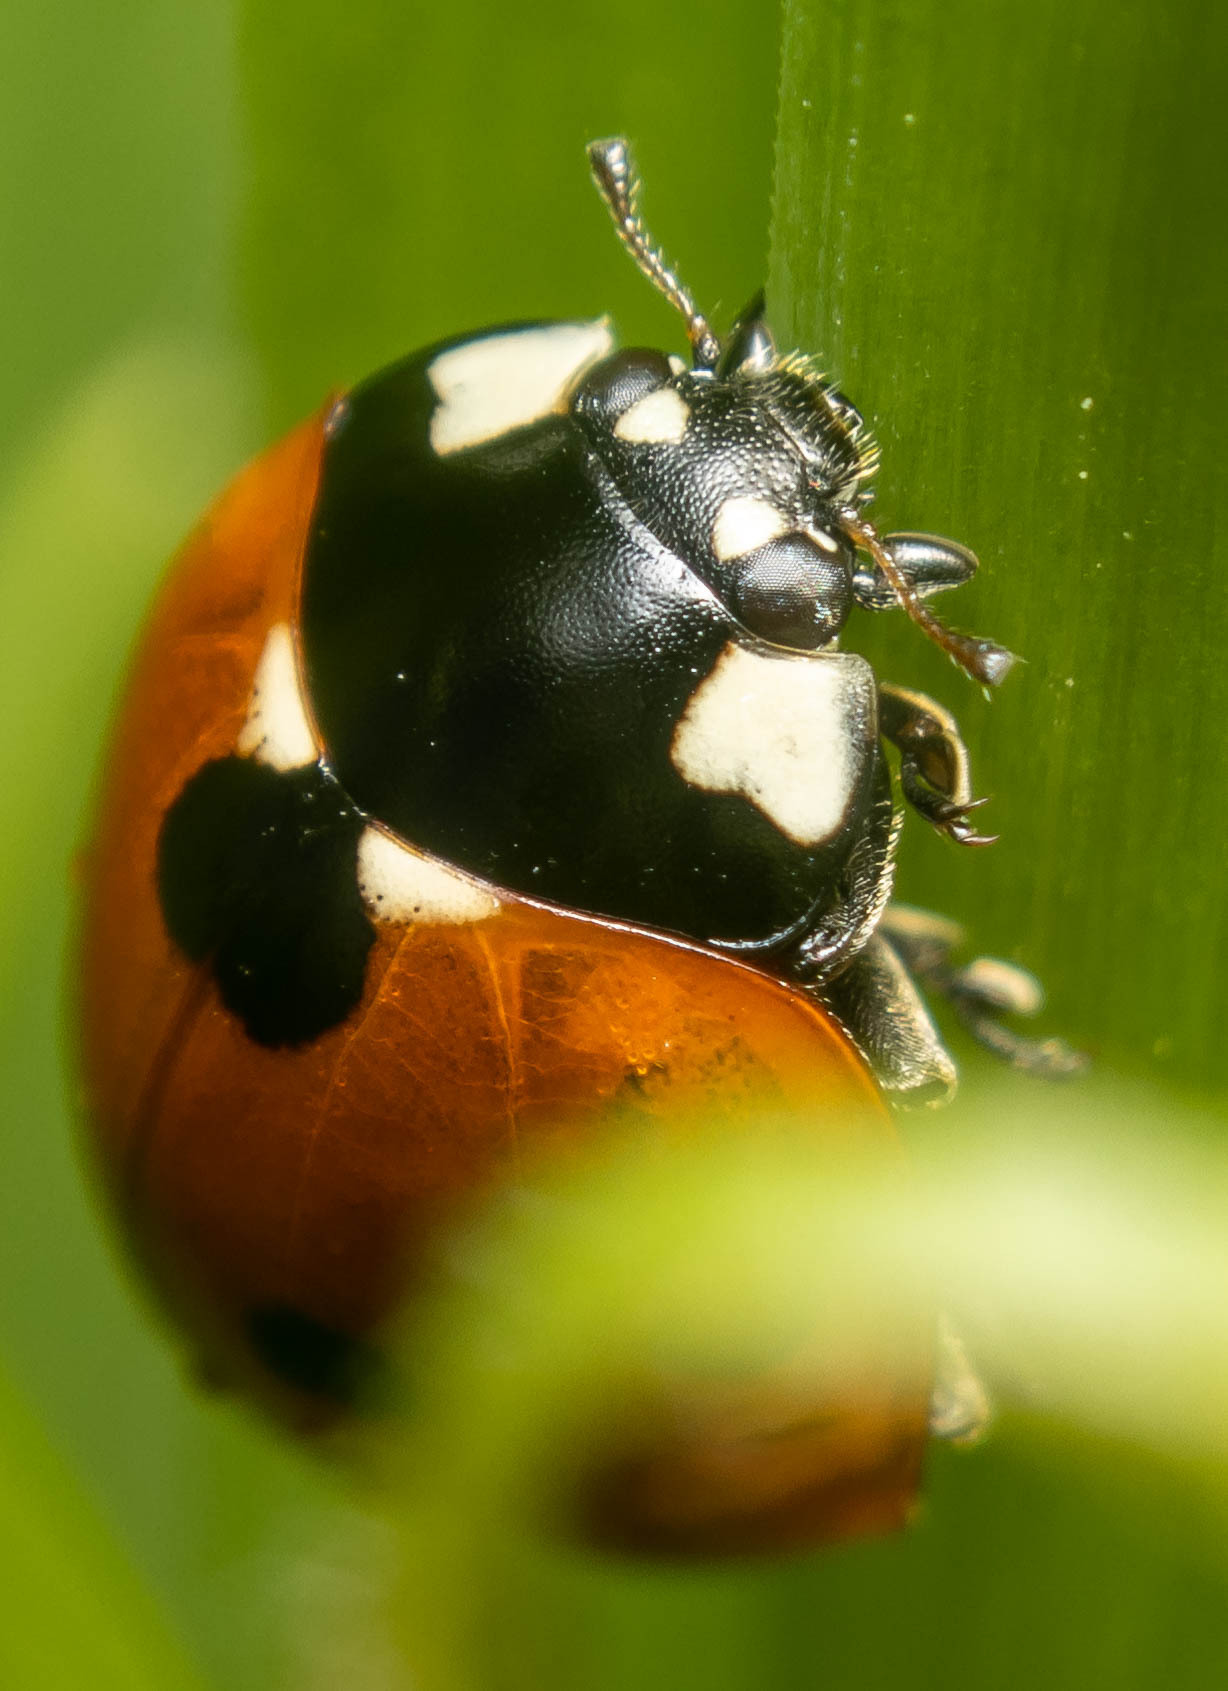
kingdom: Animalia
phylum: Arthropoda
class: Insecta
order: Coleoptera
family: Coccinellidae
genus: Coccinella
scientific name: Coccinella septempunctata
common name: Sevenspotted lady beetle
